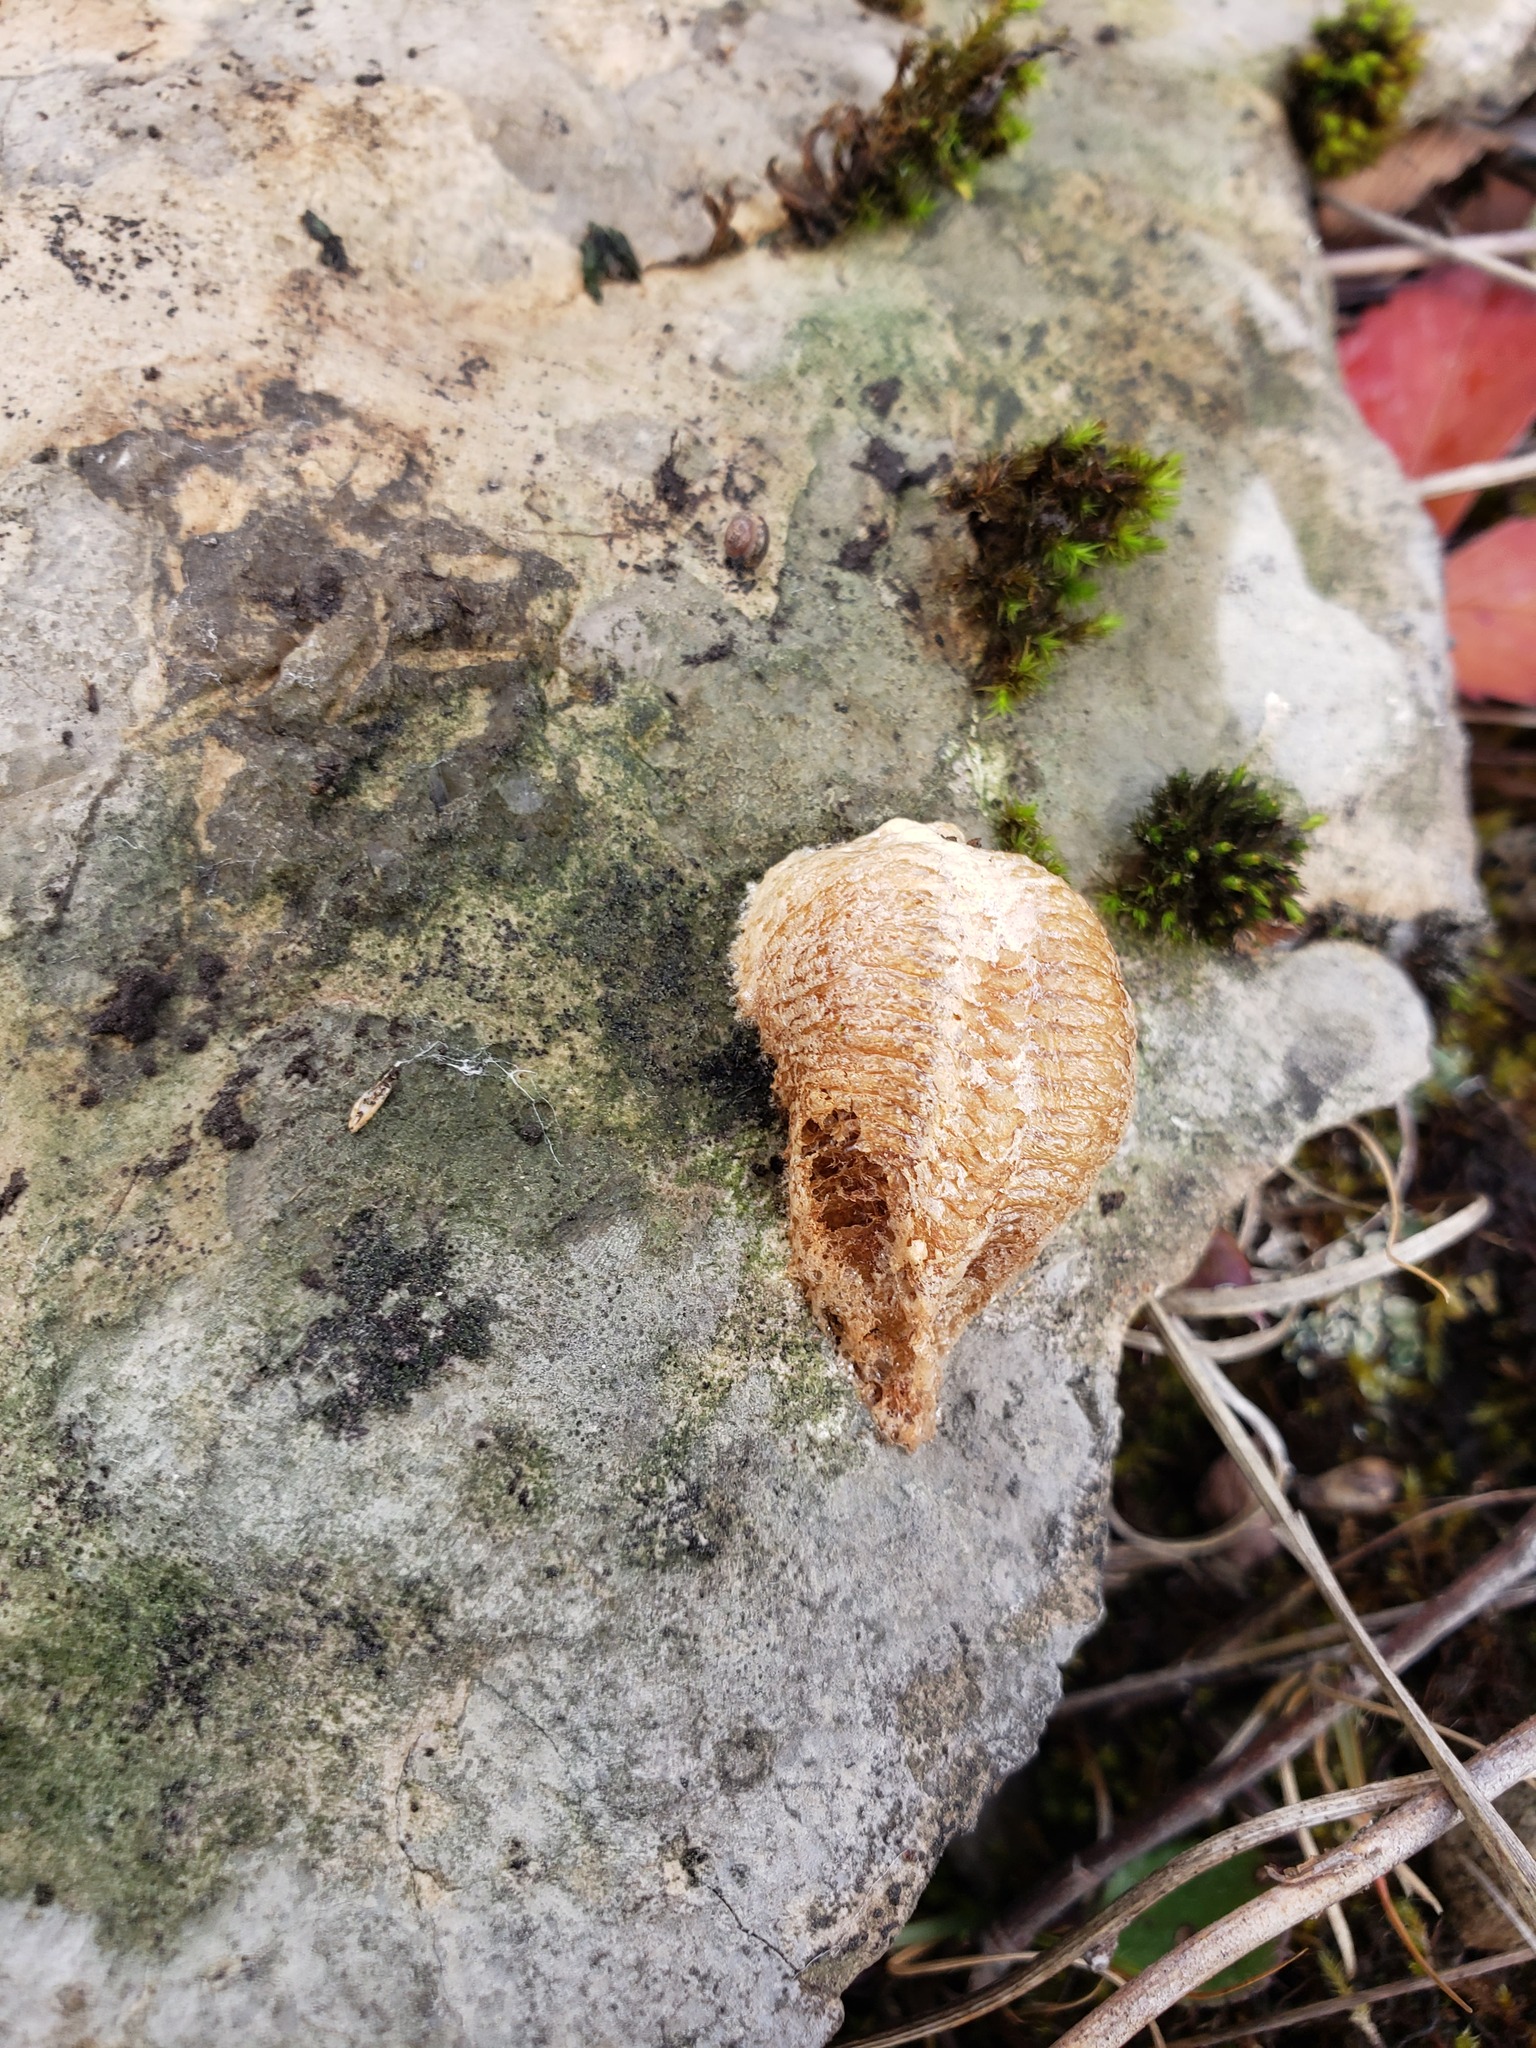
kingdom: Animalia
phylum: Arthropoda
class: Insecta
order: Mantodea
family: Mantidae
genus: Mantis
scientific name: Mantis religiosa
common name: Praying mantis
